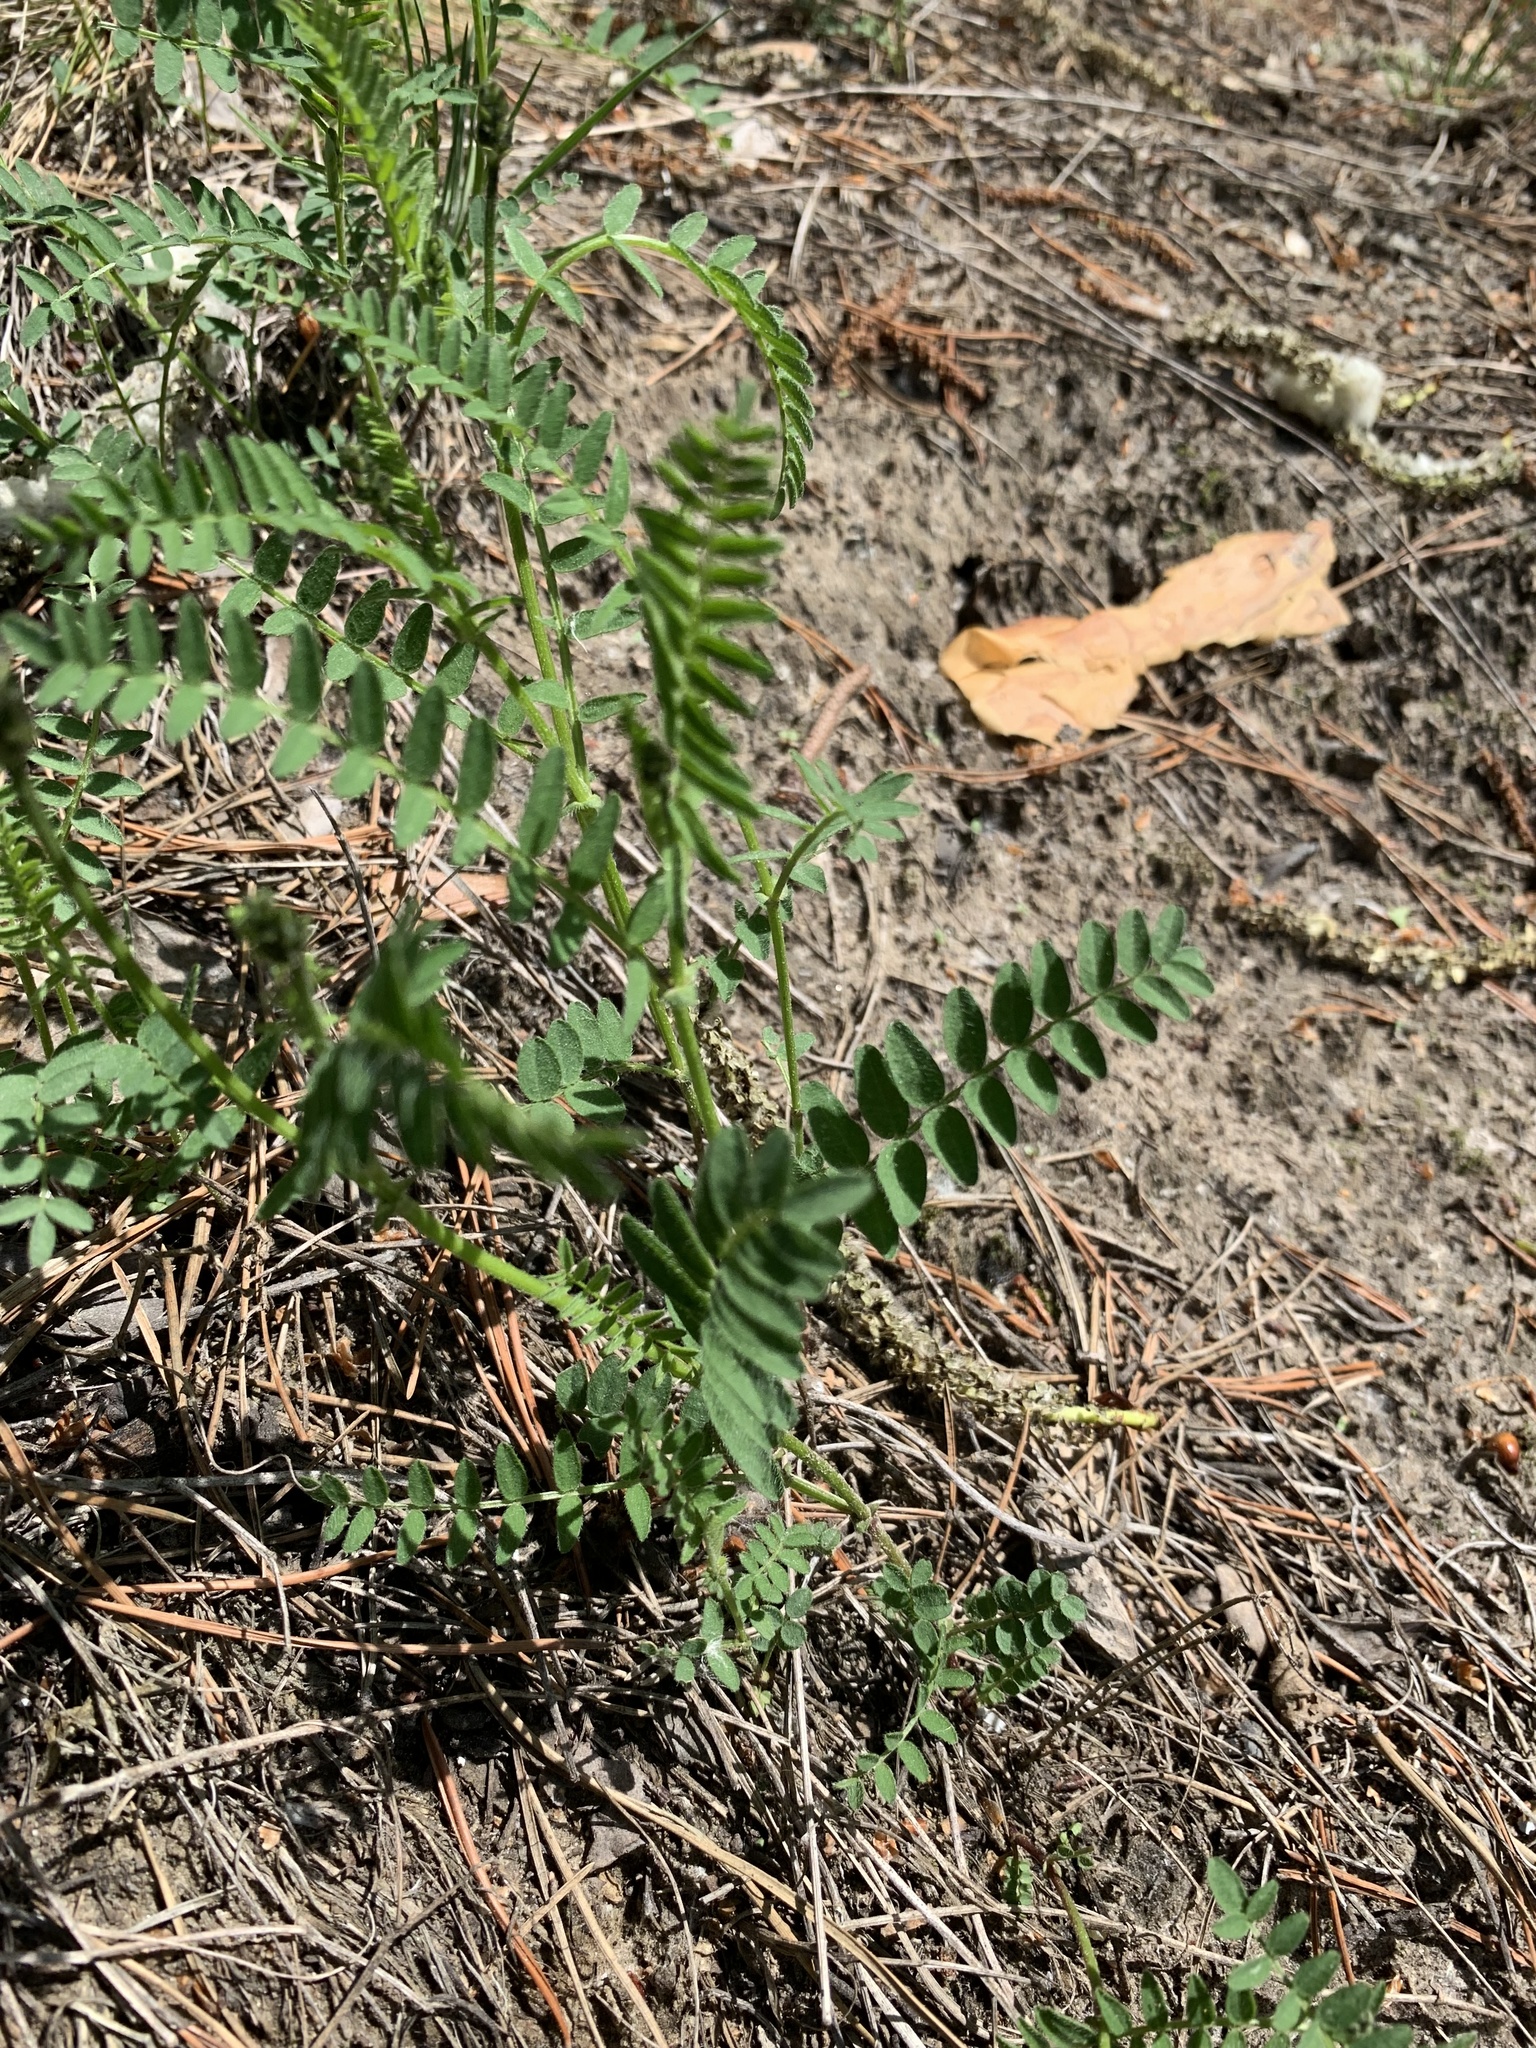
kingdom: Plantae
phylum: Tracheophyta
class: Magnoliopsida
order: Fabales
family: Fabaceae
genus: Astragalus
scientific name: Astragalus danicus
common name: Purple milk-vetch
